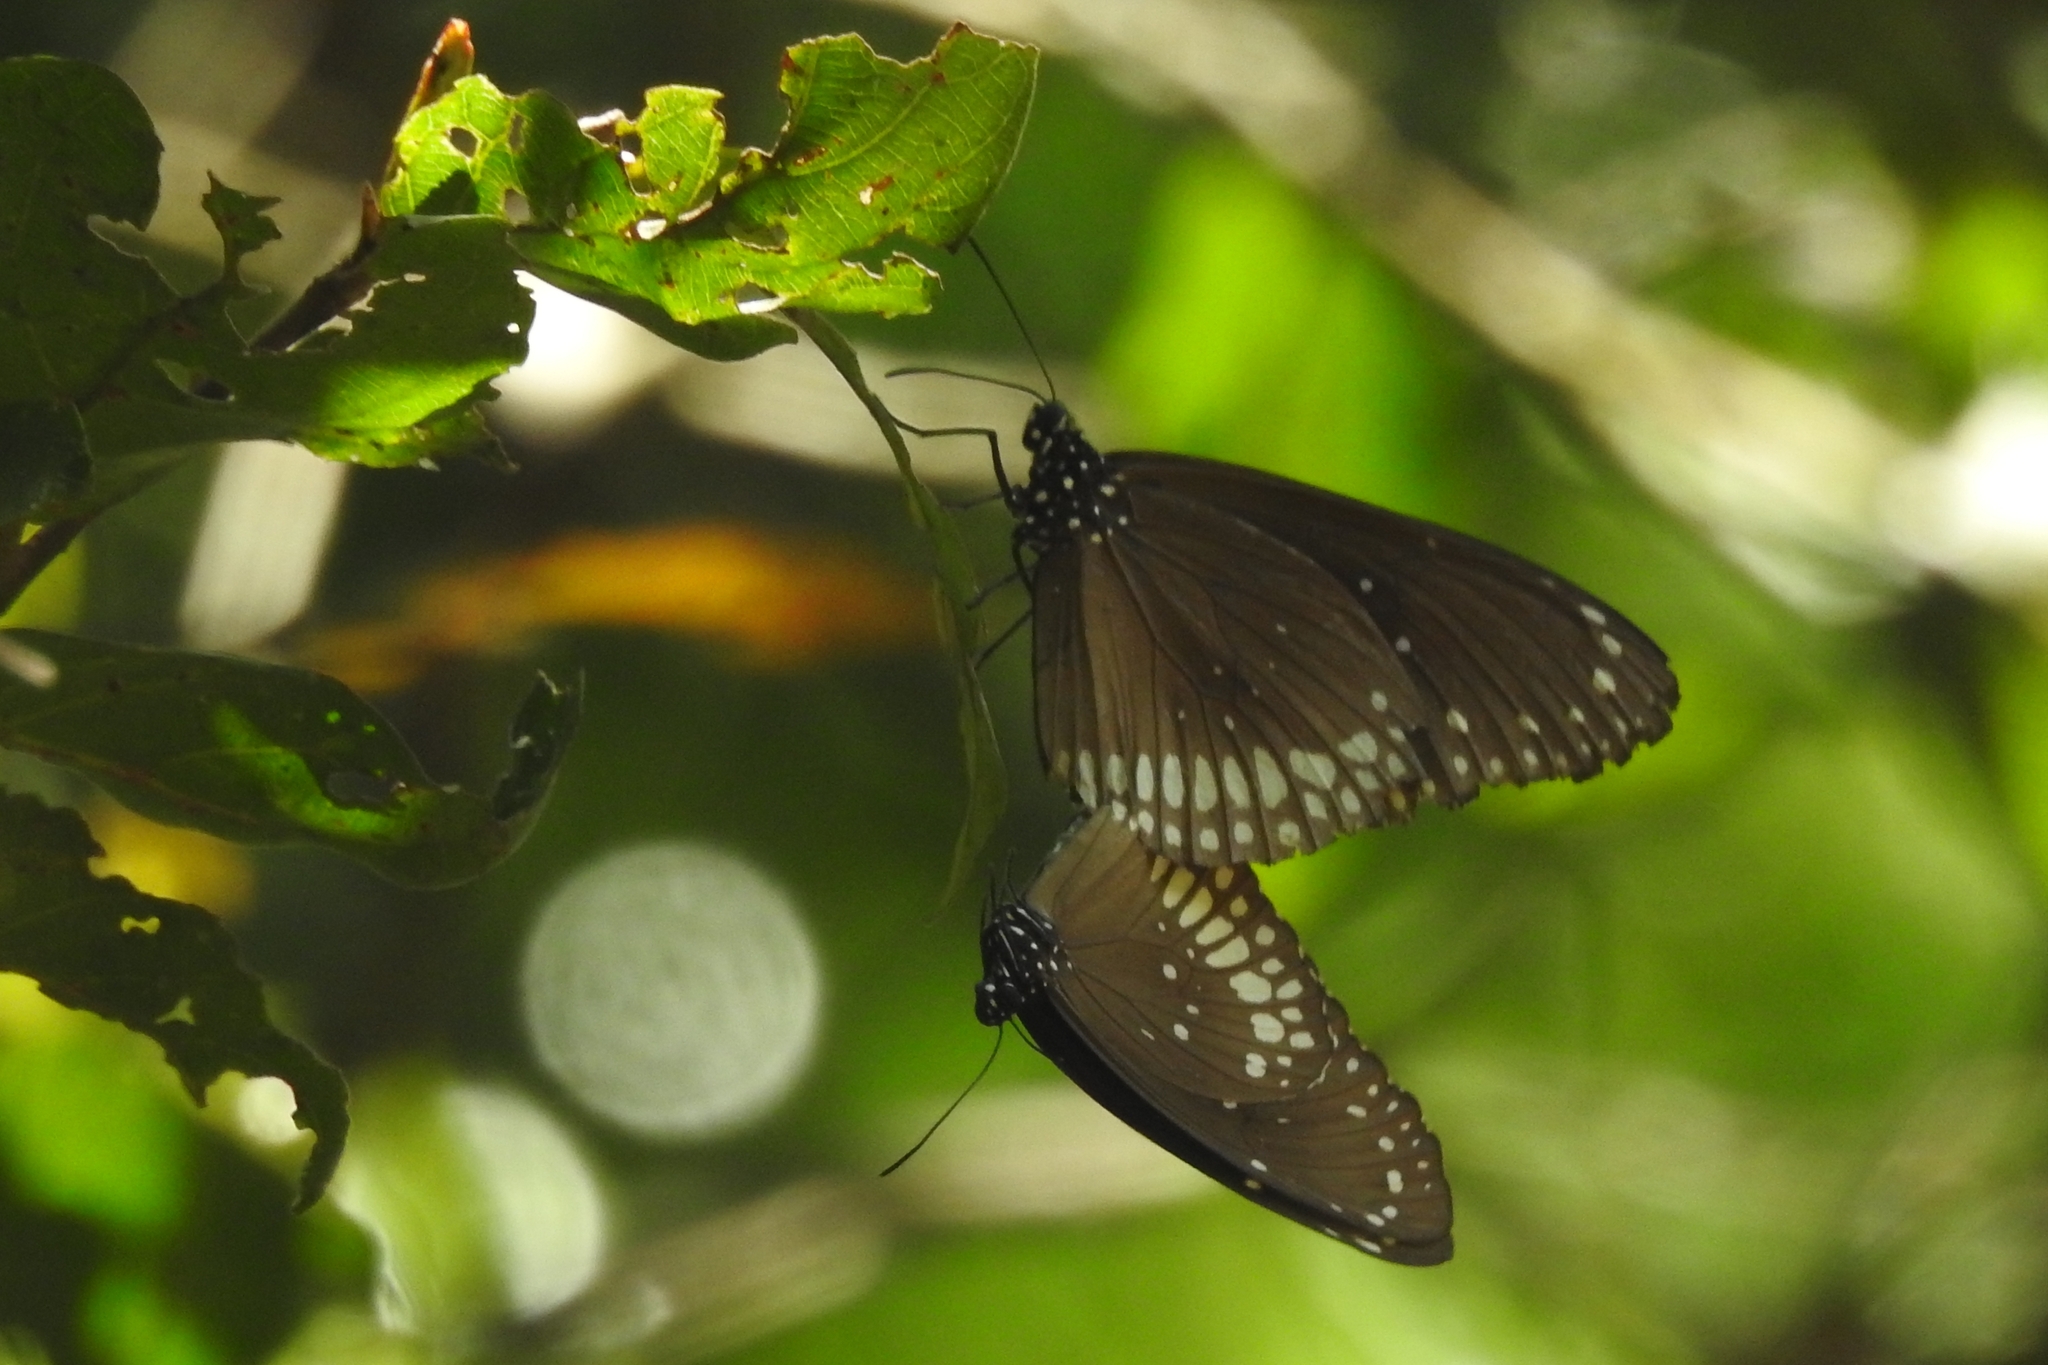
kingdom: Animalia
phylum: Arthropoda
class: Insecta
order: Lepidoptera
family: Nymphalidae
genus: Euploea
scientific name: Euploea core
